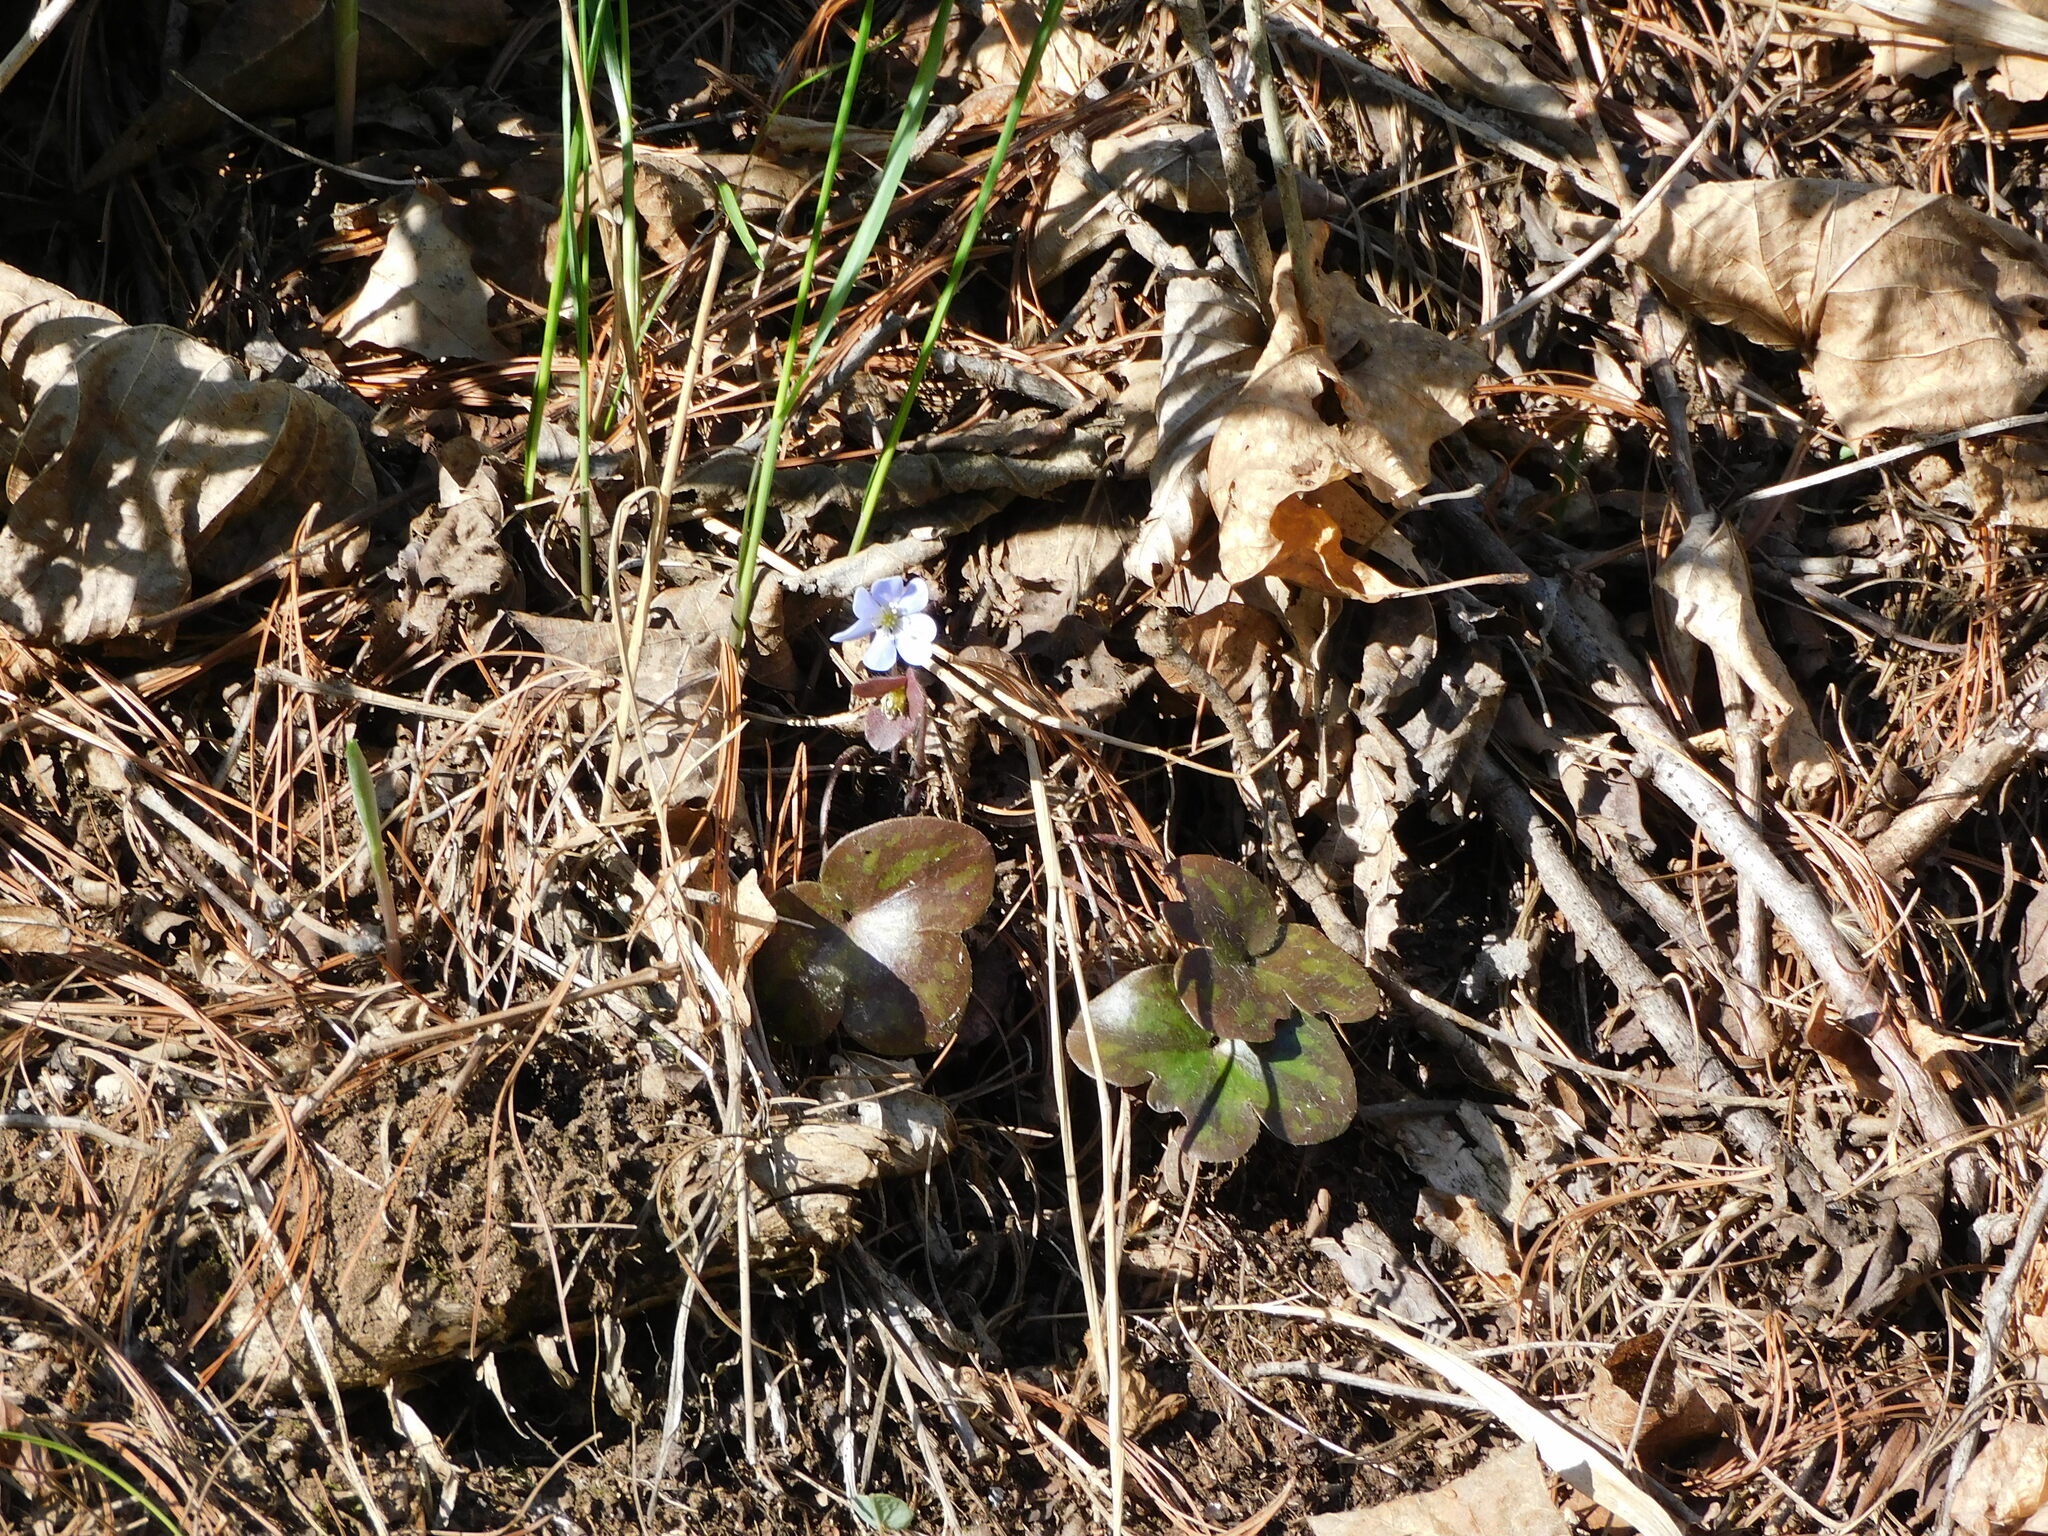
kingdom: Plantae
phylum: Tracheophyta
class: Magnoliopsida
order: Ranunculales
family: Ranunculaceae
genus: Hepatica
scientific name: Hepatica americana
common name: American hepatica
